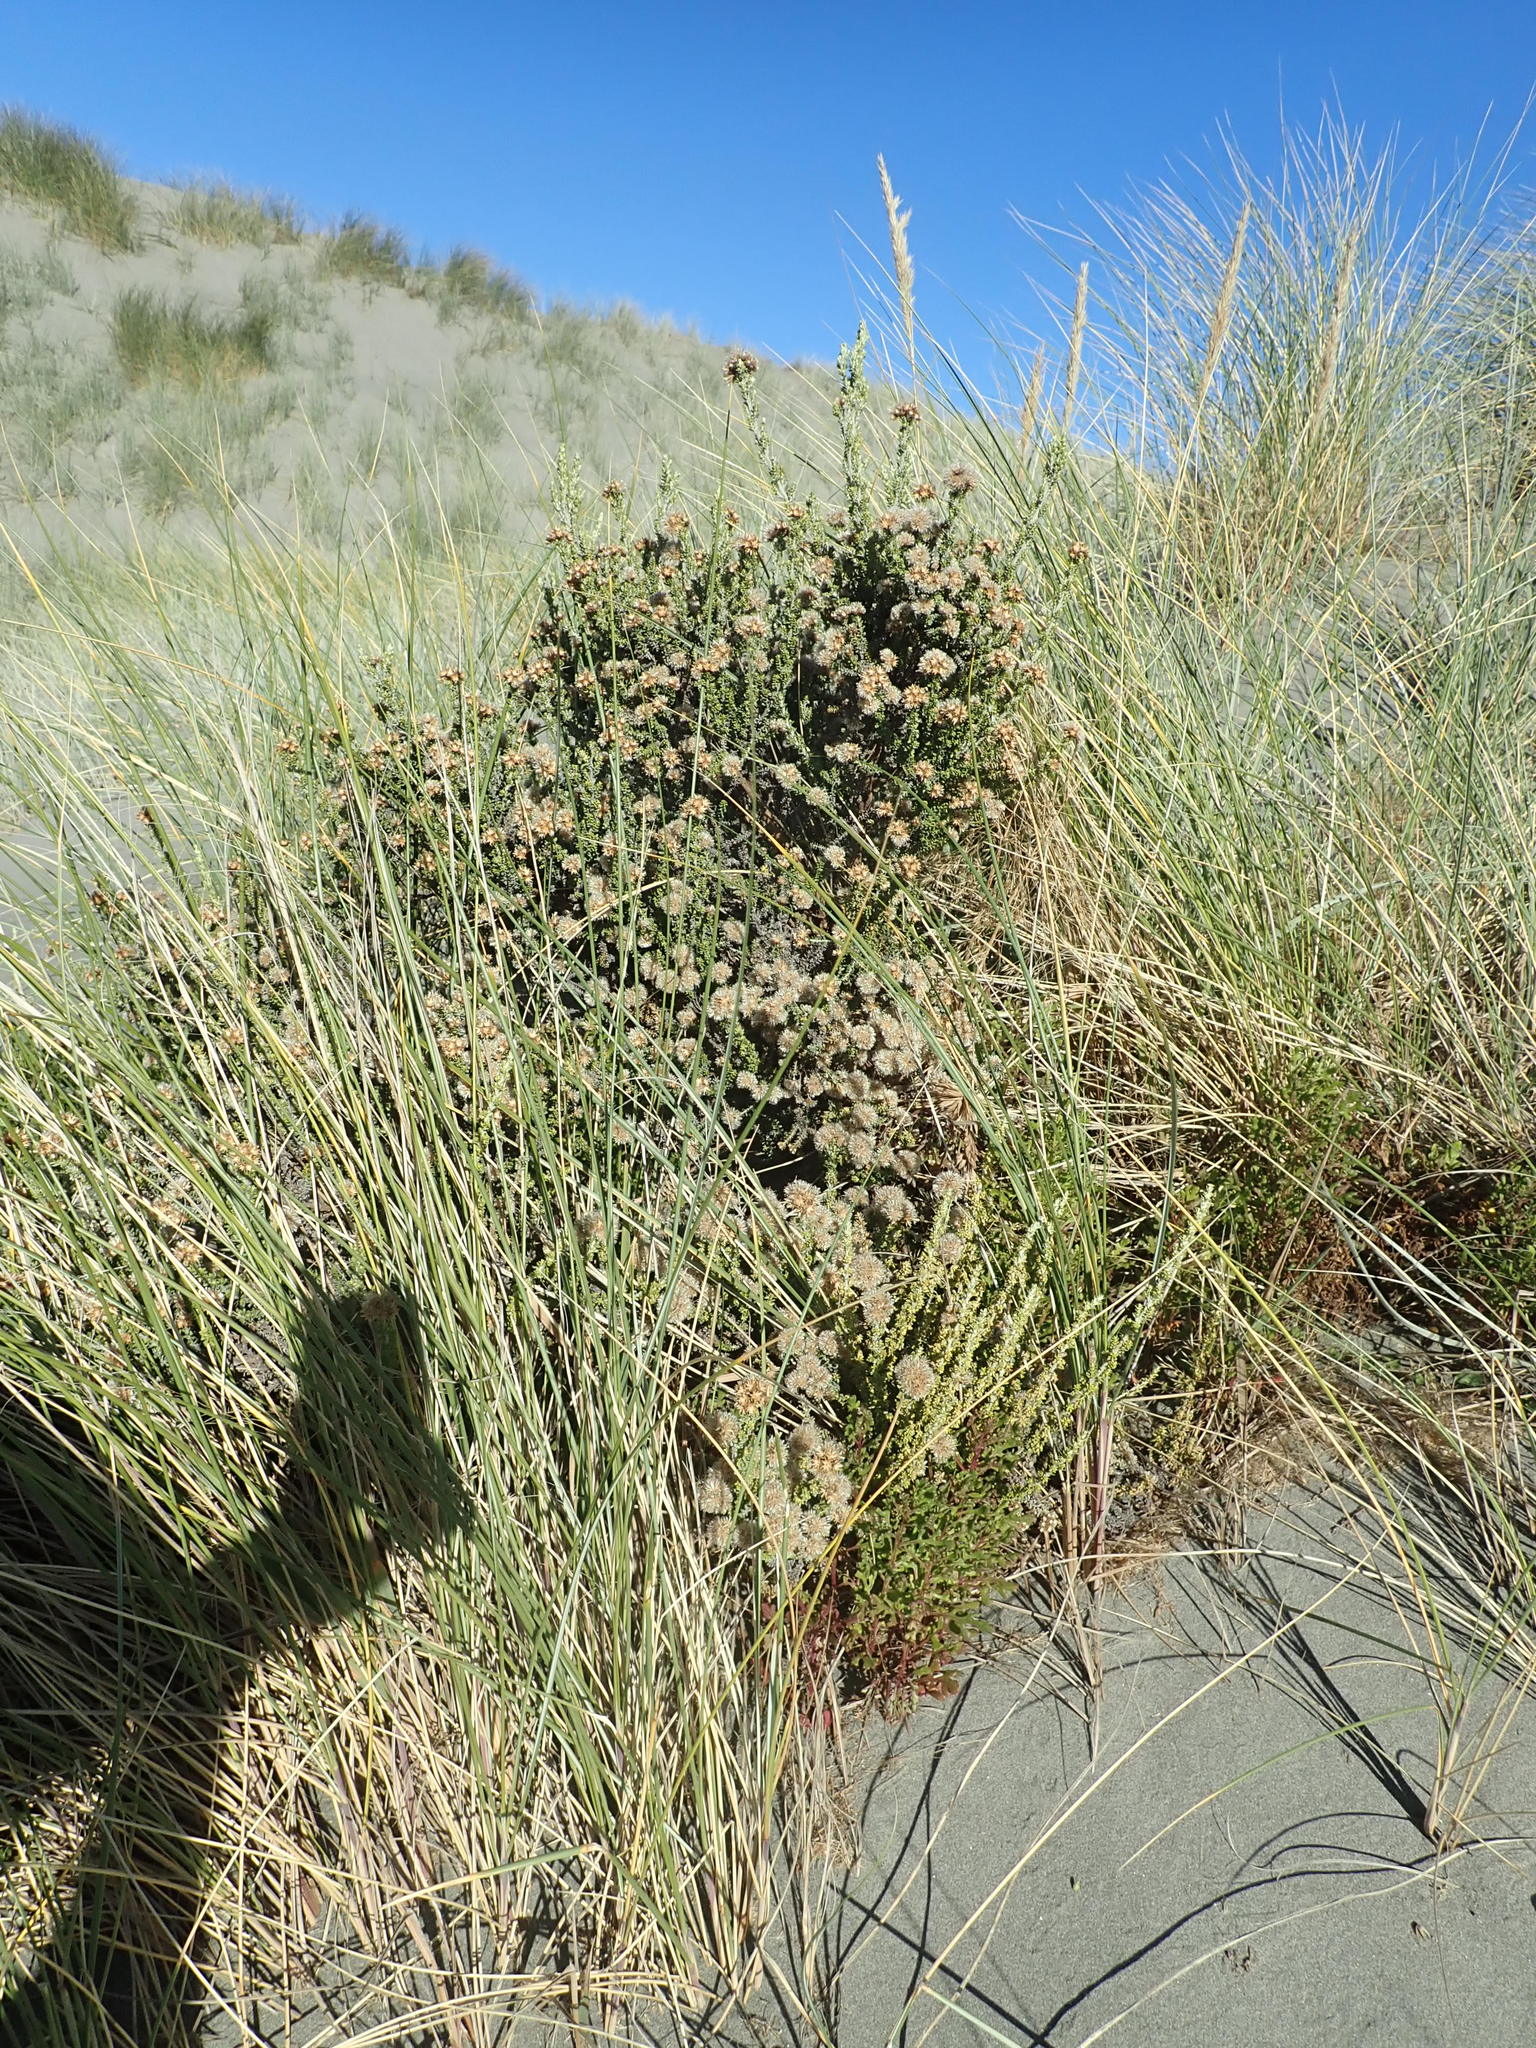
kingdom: Plantae
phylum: Tracheophyta
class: Magnoliopsida
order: Asterales
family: Asteraceae
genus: Ozothamnus
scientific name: Ozothamnus leptophyllus
